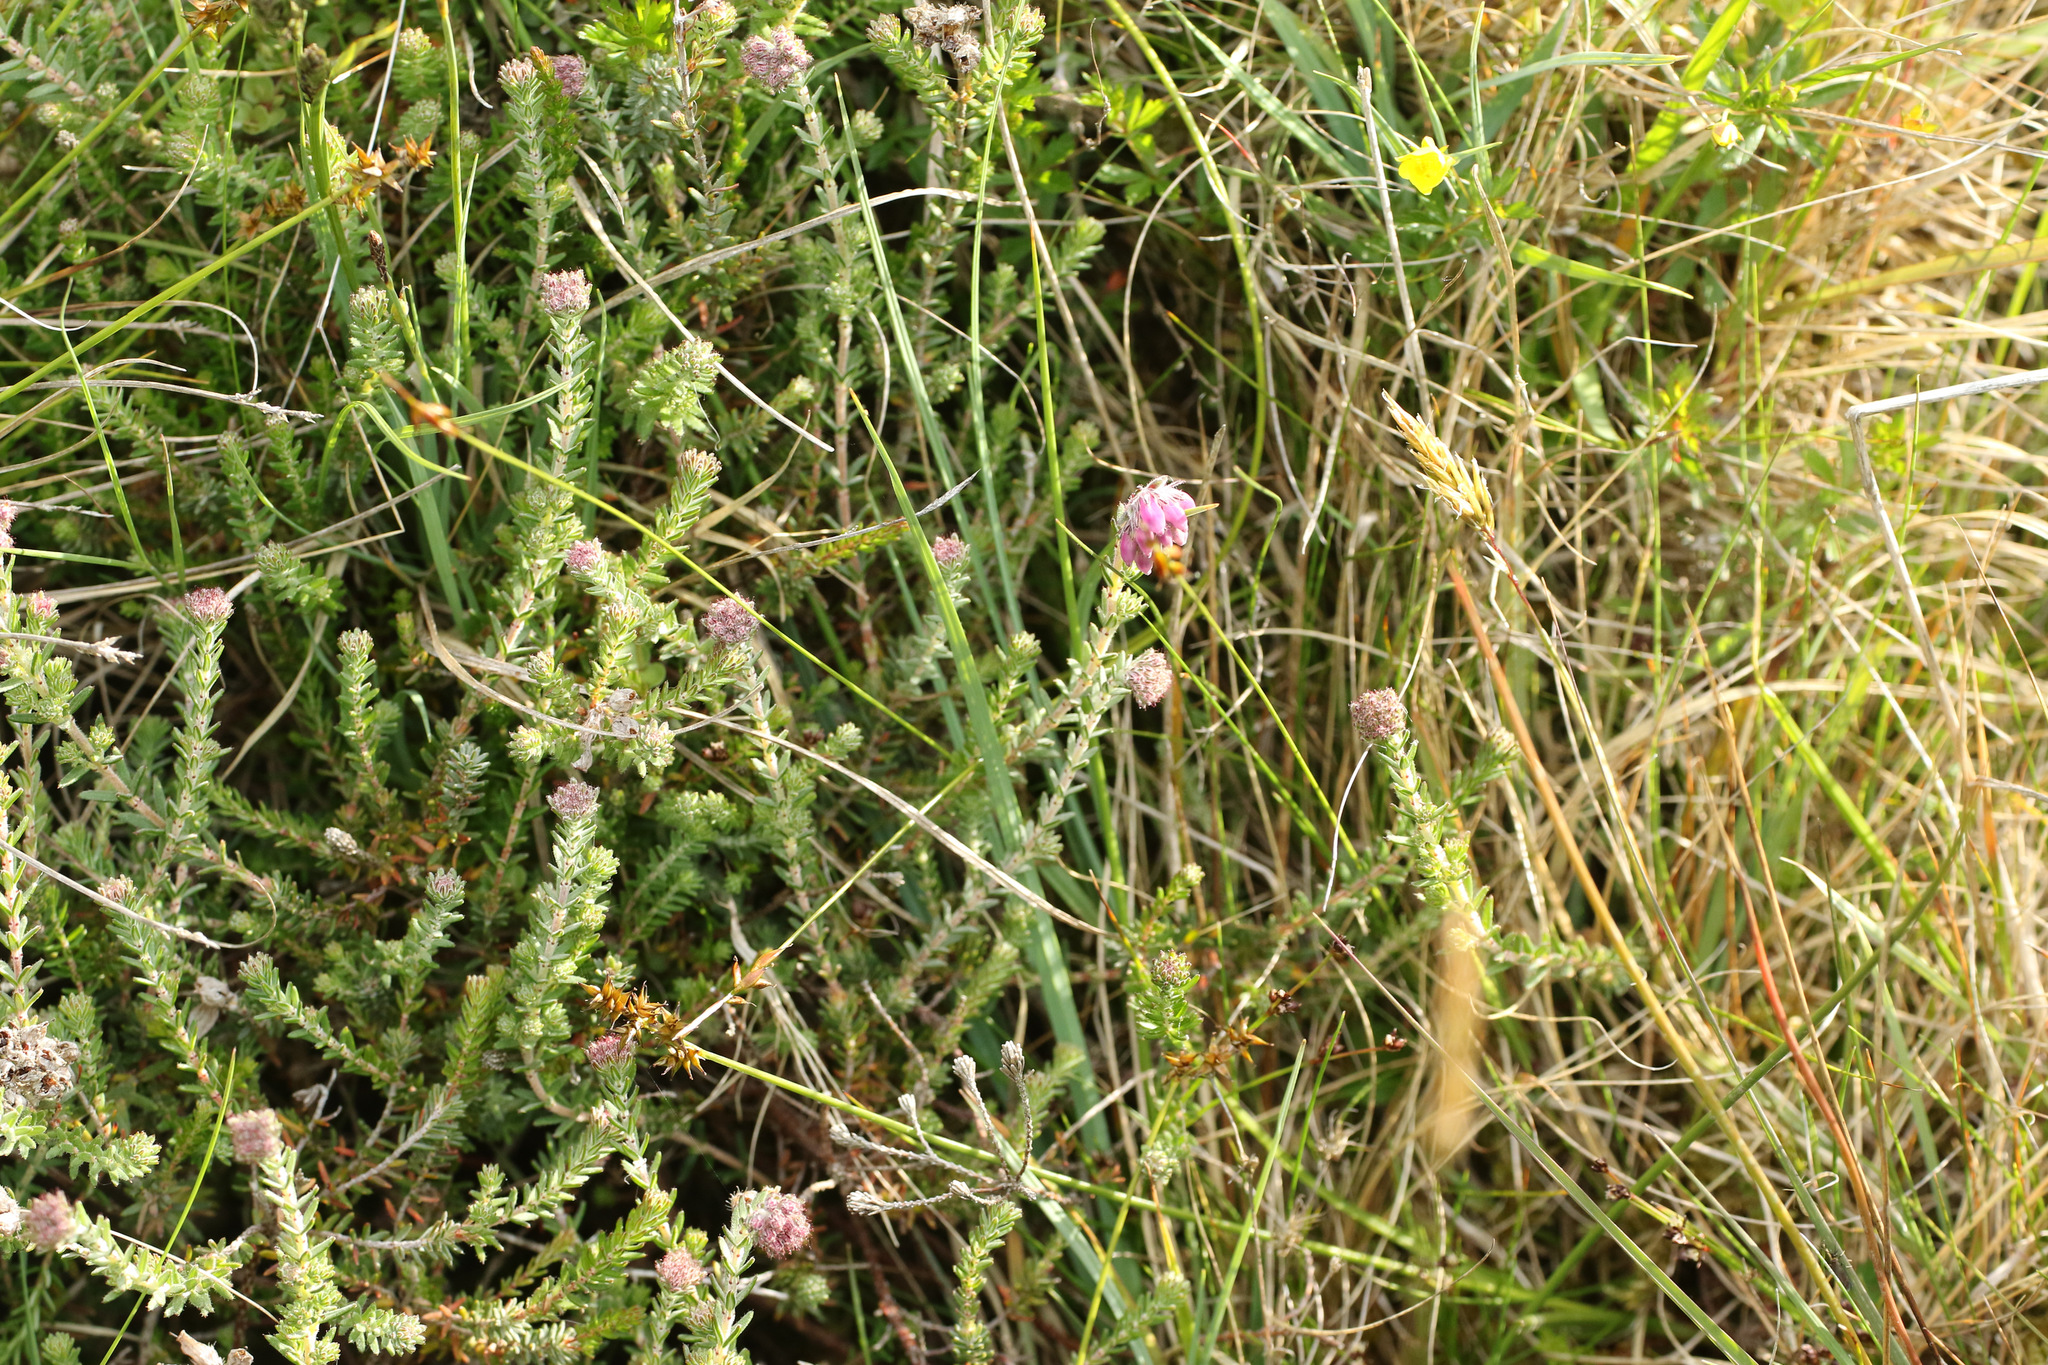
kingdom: Plantae
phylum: Tracheophyta
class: Magnoliopsida
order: Ericales
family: Ericaceae
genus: Erica
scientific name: Erica tetralix
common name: Cross-leaved heath
